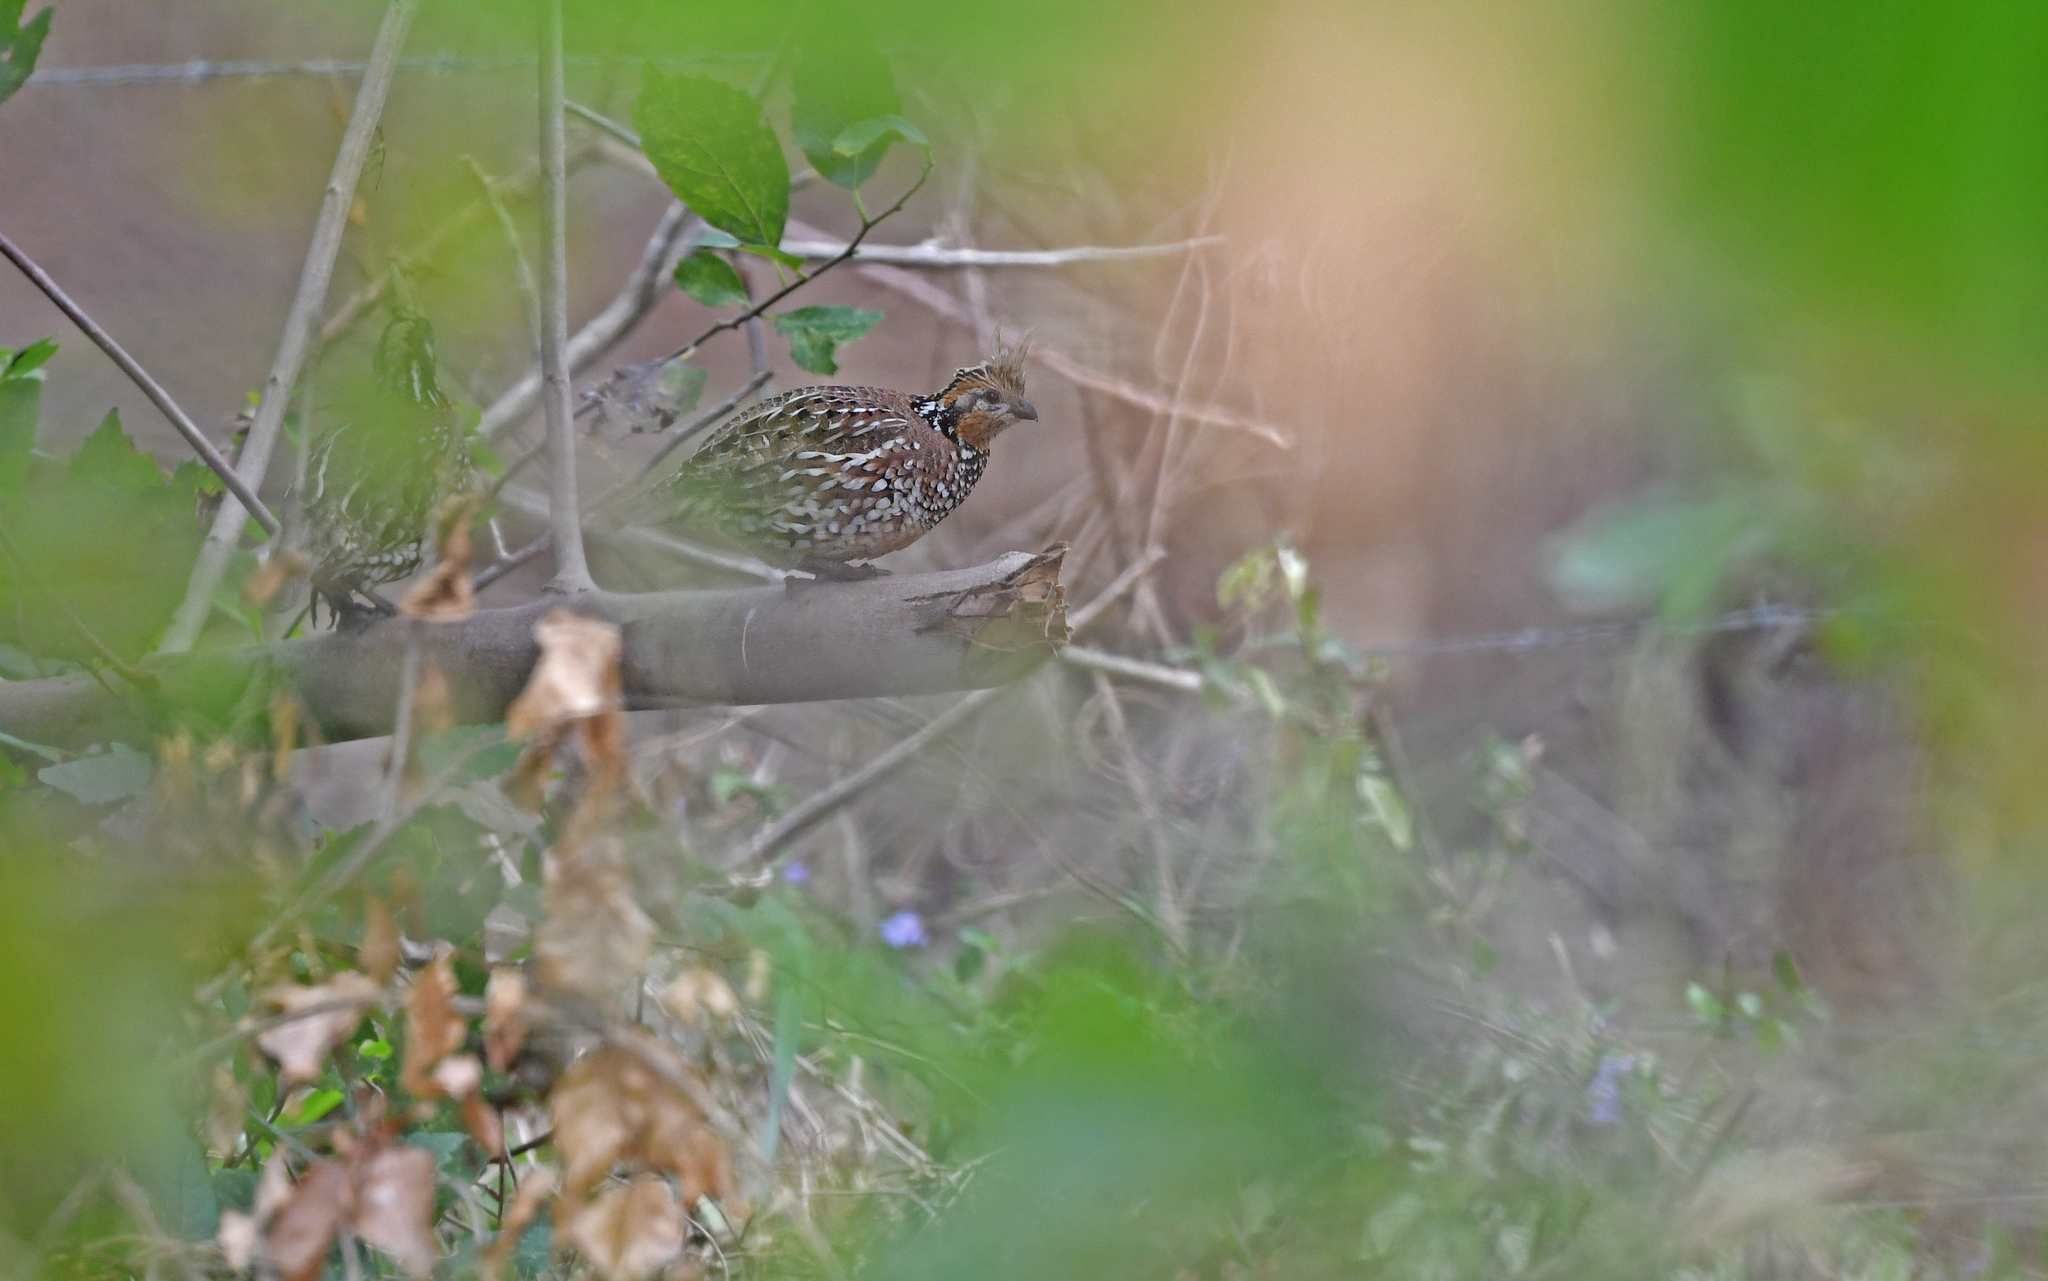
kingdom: Animalia
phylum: Chordata
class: Aves
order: Galliformes
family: Odontophoridae
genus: Colinus
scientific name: Colinus cristatus
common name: Crested bobwhite
